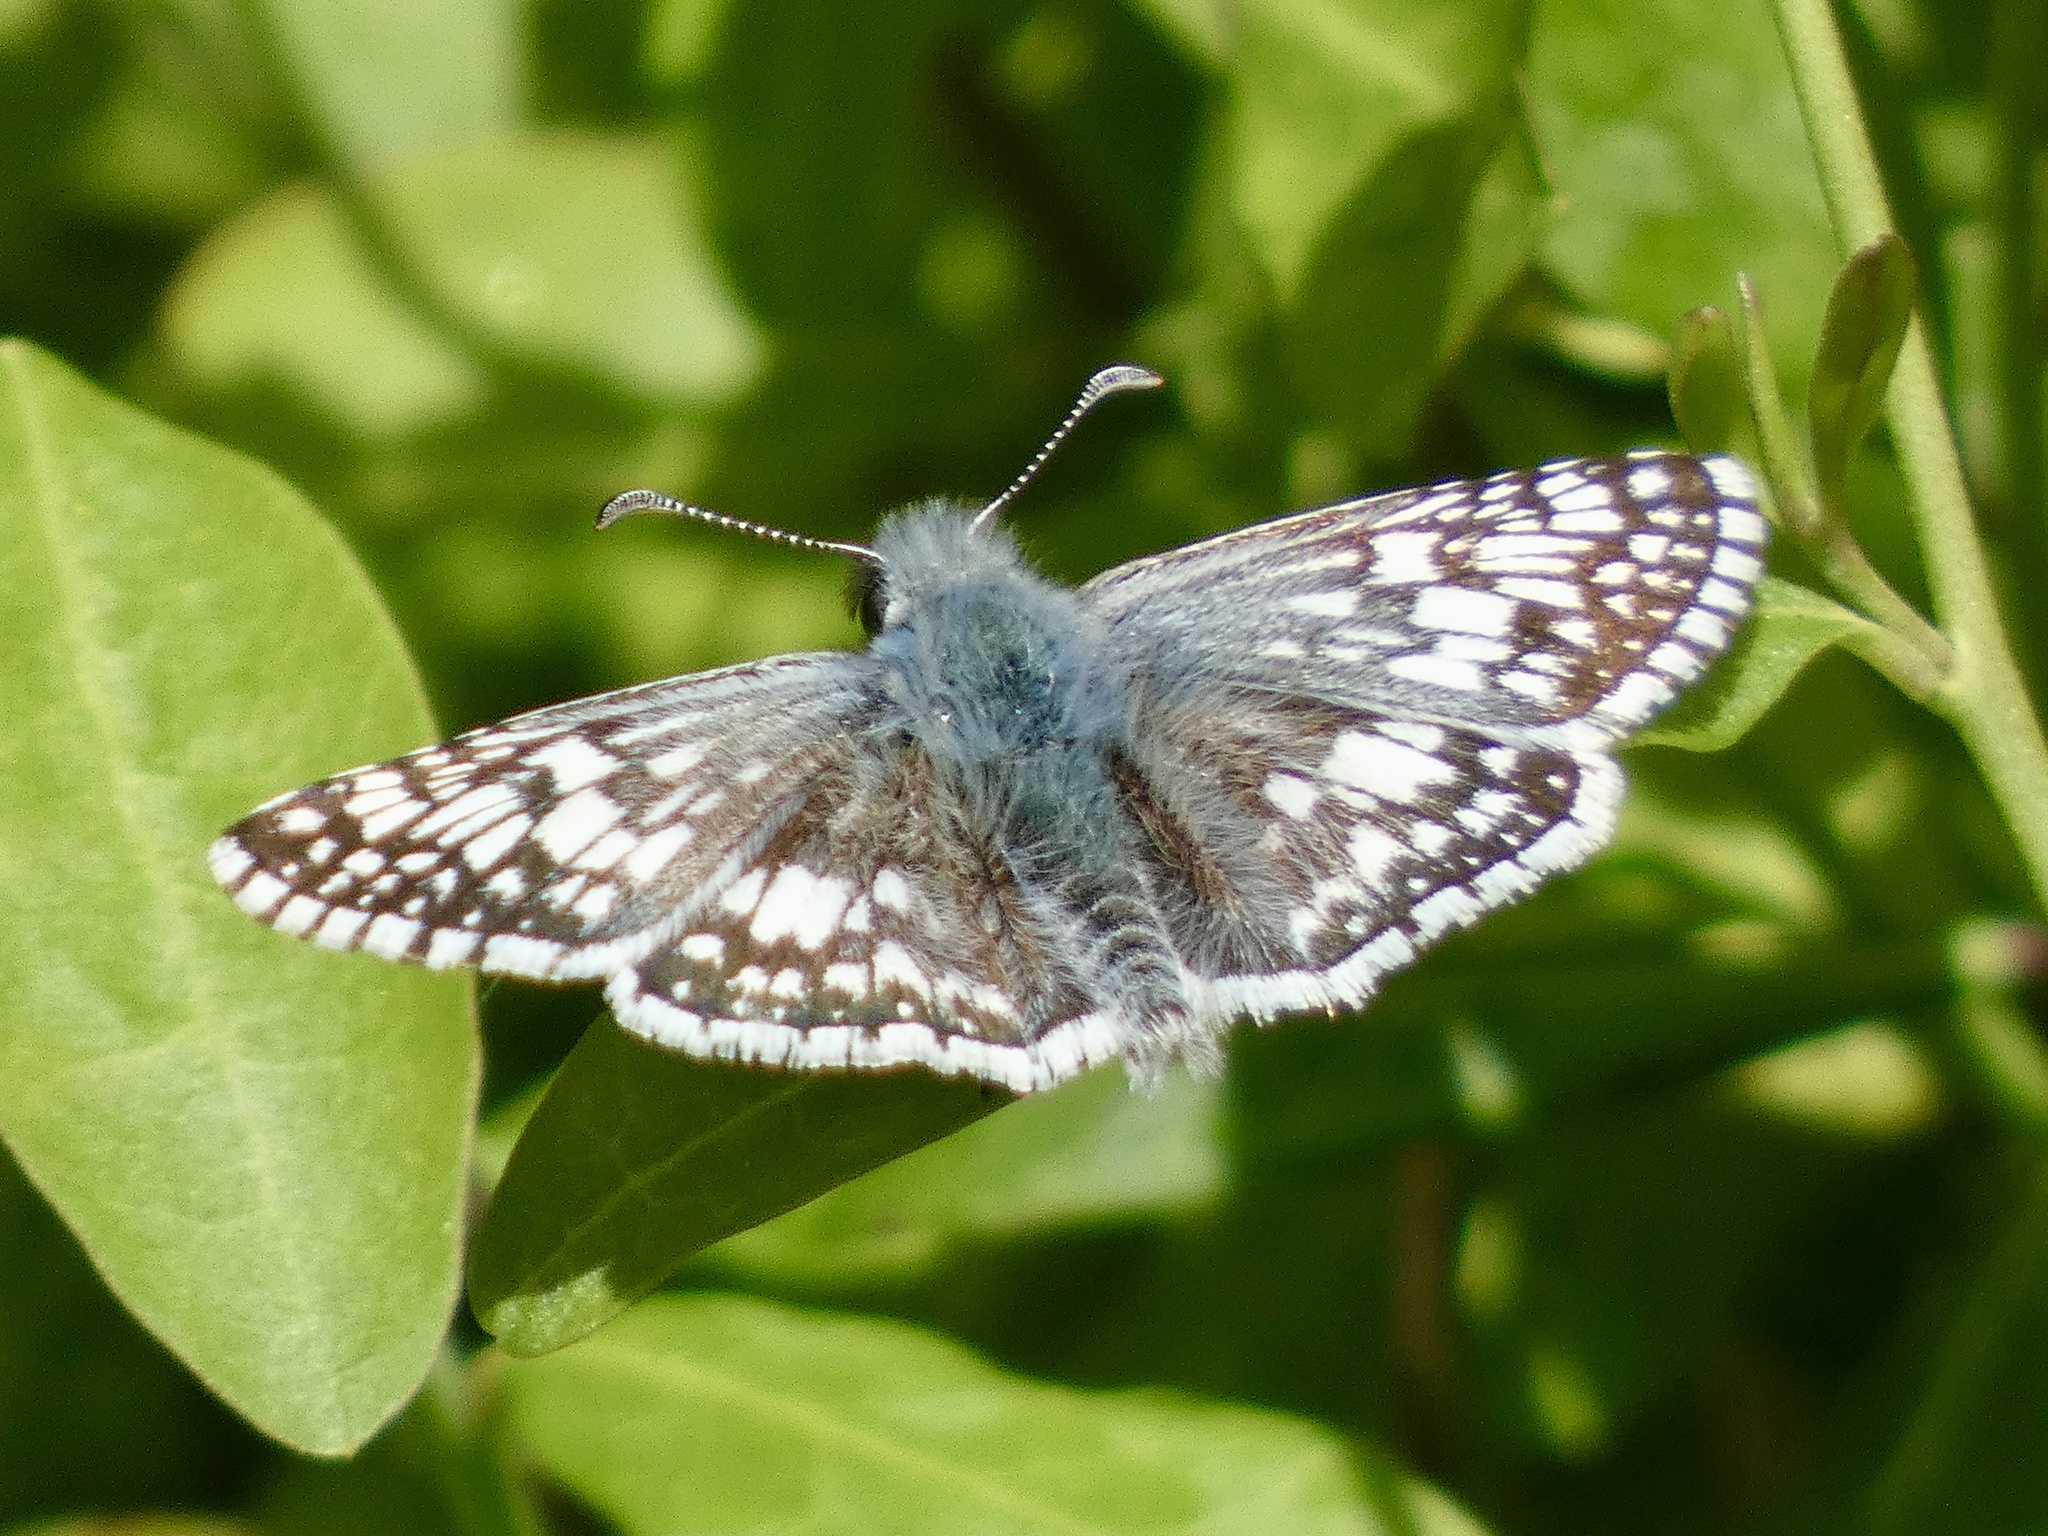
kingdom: Animalia
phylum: Arthropoda
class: Insecta
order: Lepidoptera
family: Hesperiidae
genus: Burnsius
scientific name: Burnsius communis
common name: Common checkered-skipper
